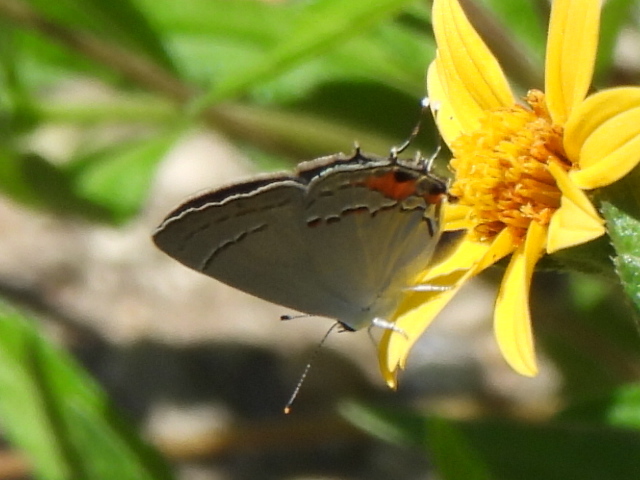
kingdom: Animalia
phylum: Arthropoda
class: Insecta
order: Lepidoptera
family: Lycaenidae
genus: Strymon
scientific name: Strymon melinus
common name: Gray hairstreak
